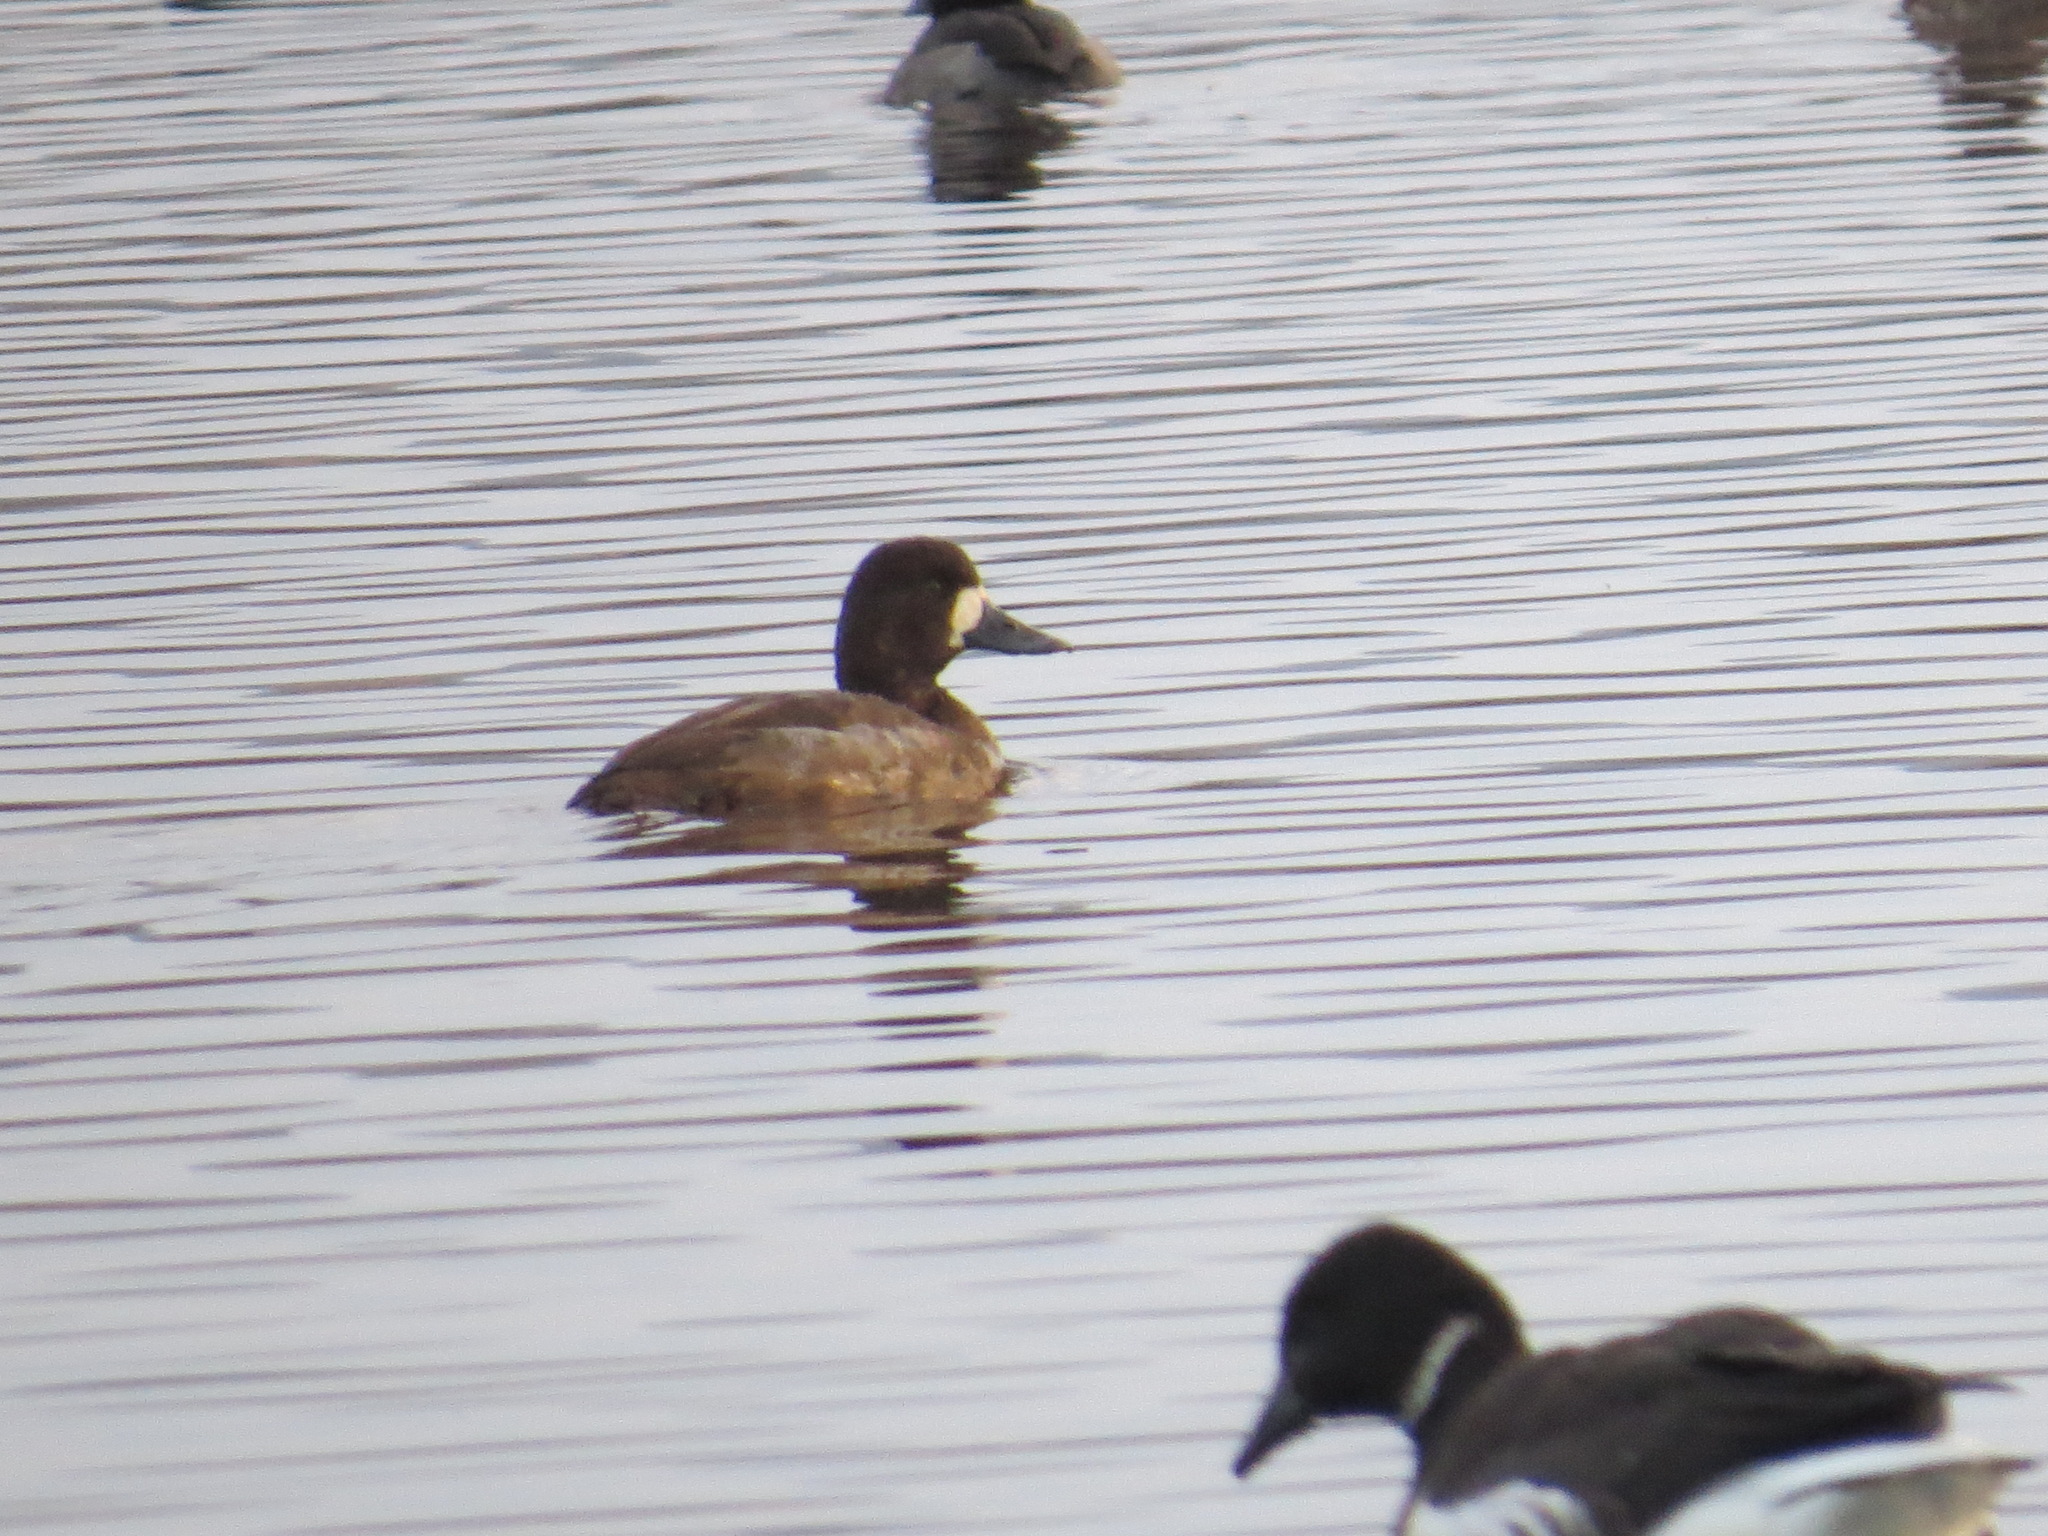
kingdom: Animalia
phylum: Chordata
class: Aves
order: Anseriformes
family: Anatidae
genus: Aythya
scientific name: Aythya affinis
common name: Lesser scaup
